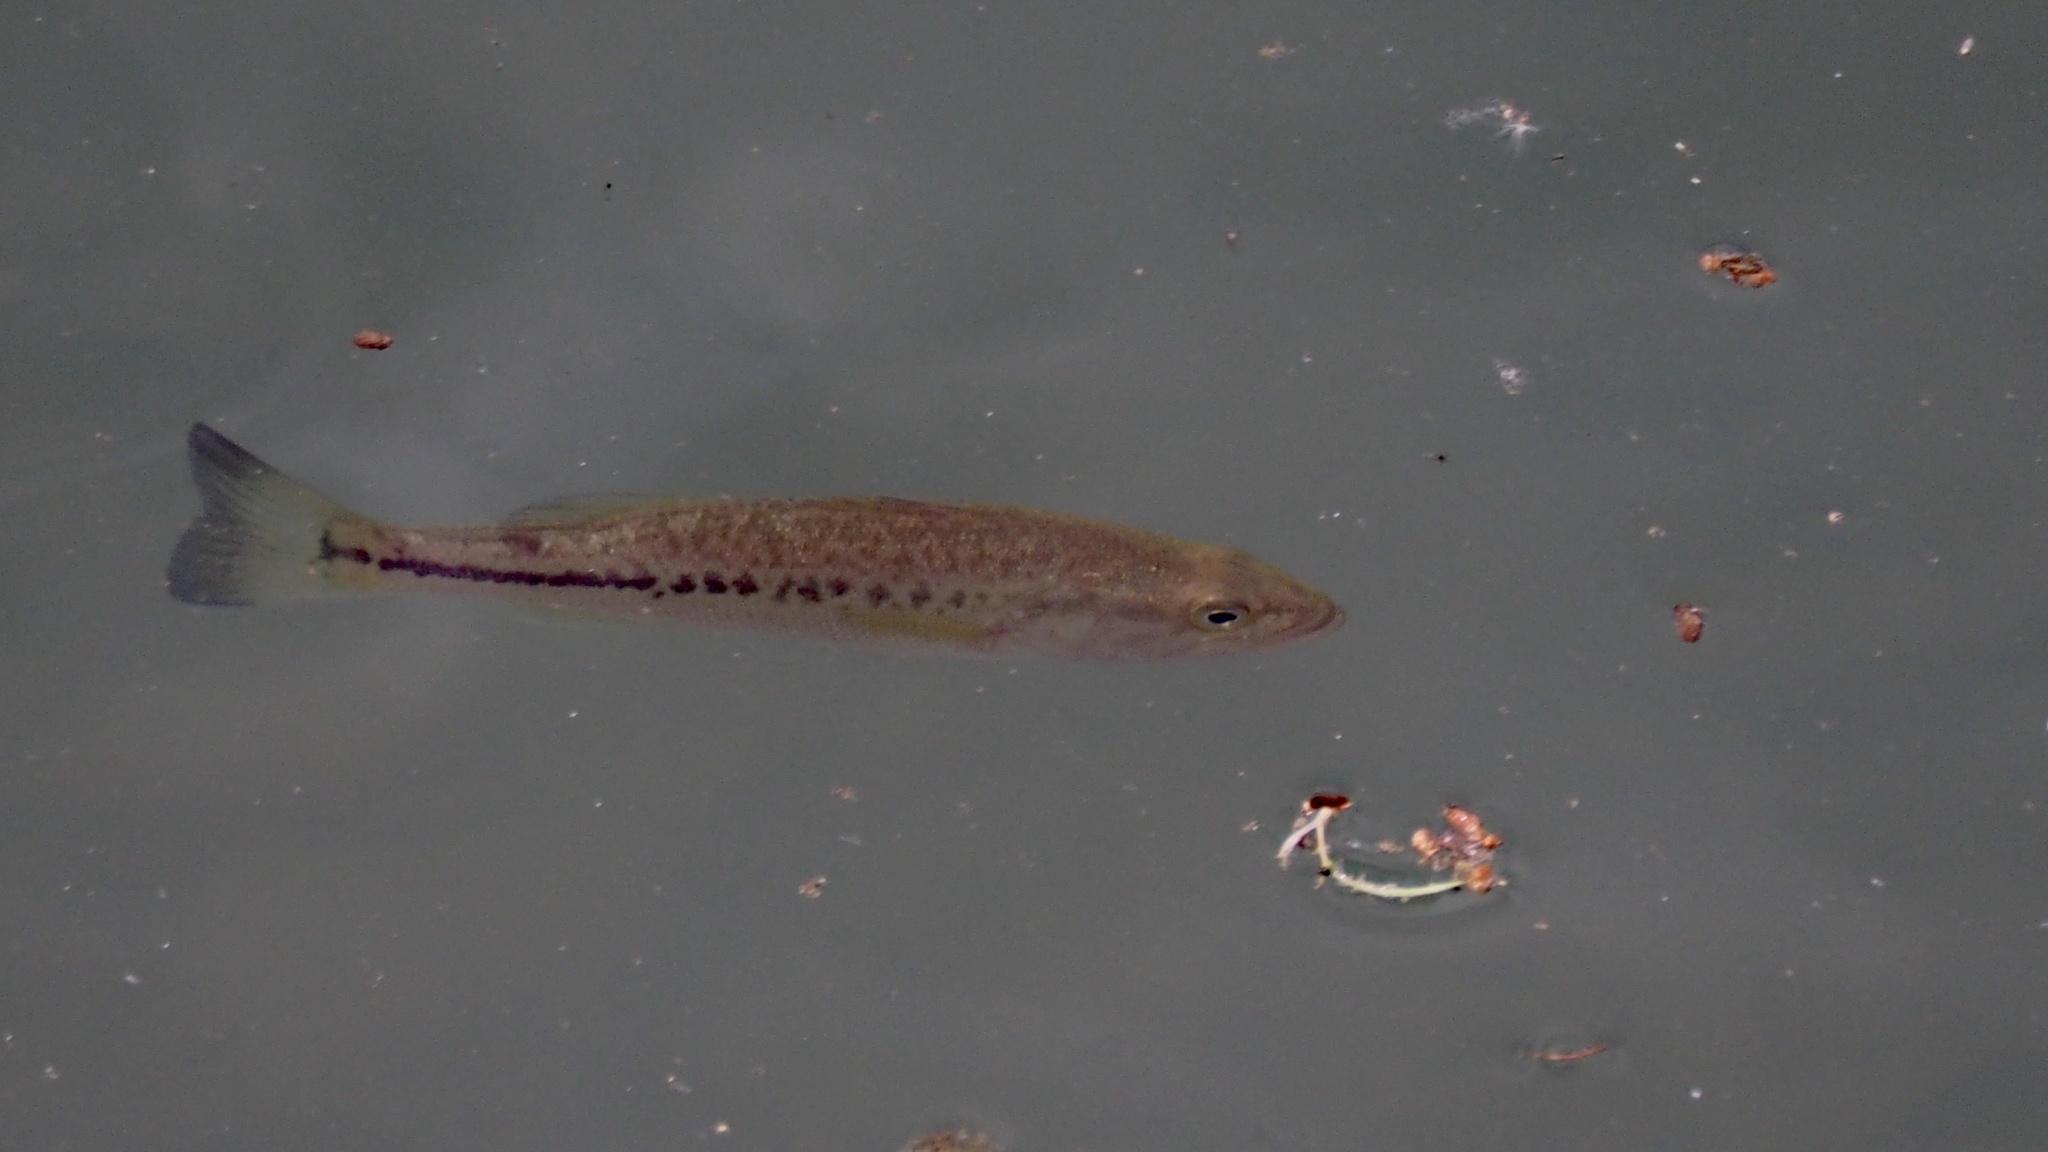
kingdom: Animalia
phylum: Chordata
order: Perciformes
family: Centrarchidae
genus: Micropterus
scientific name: Micropterus
